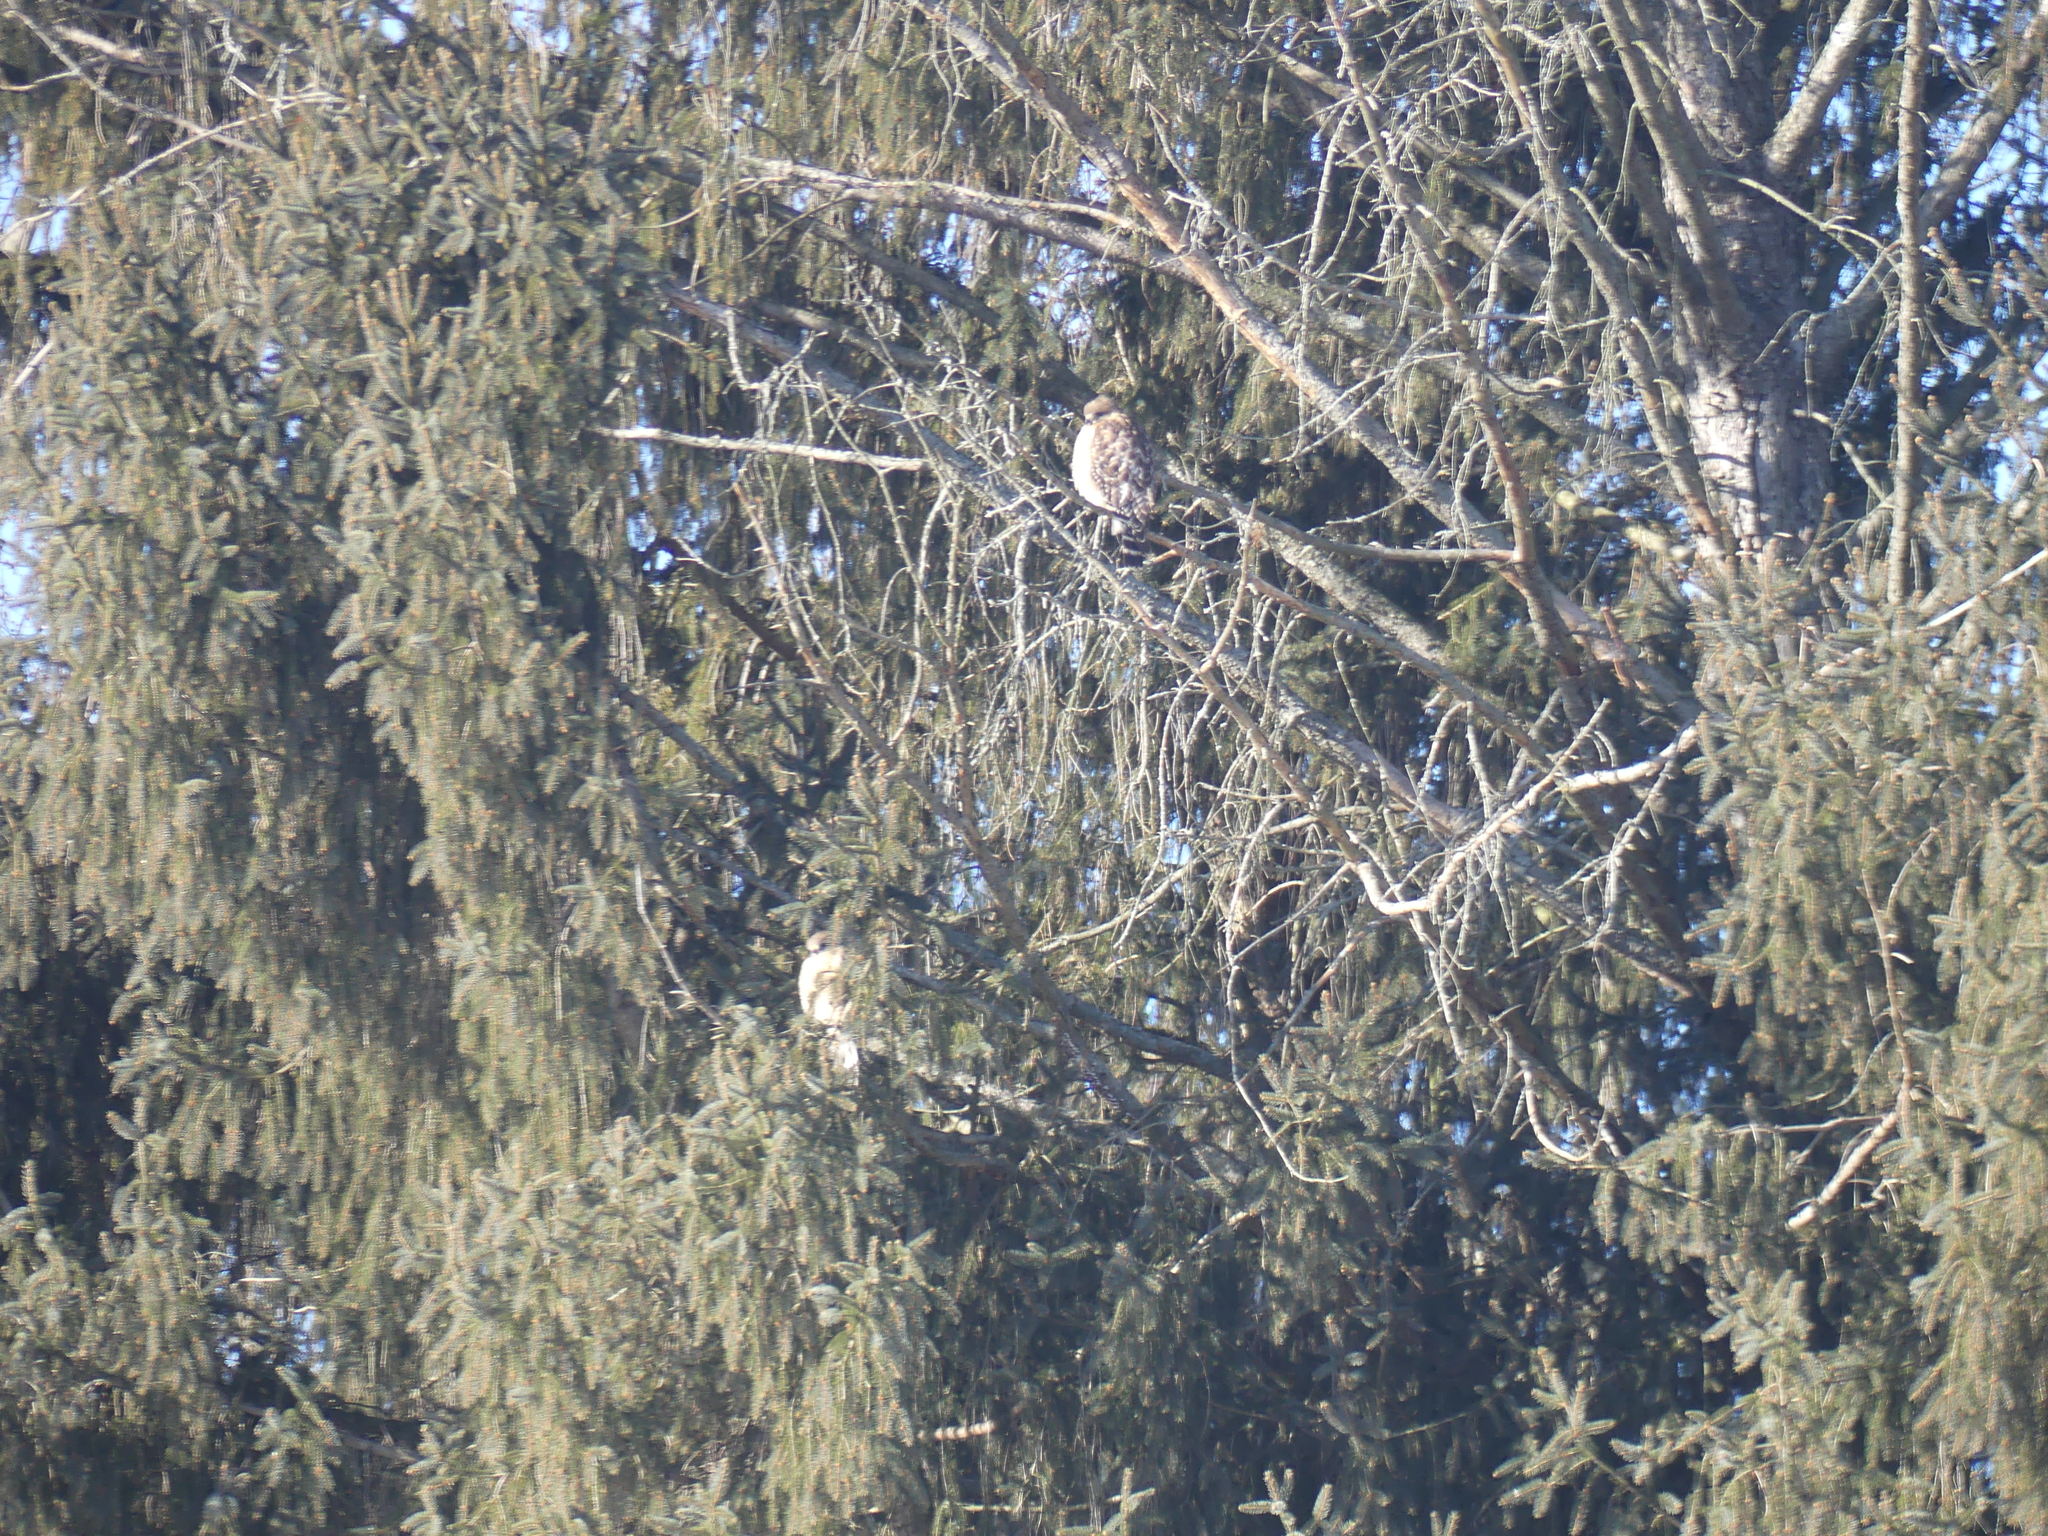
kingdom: Animalia
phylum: Chordata
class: Aves
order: Accipitriformes
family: Accipitridae
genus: Buteo
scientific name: Buteo lineatus
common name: Red-shouldered hawk
